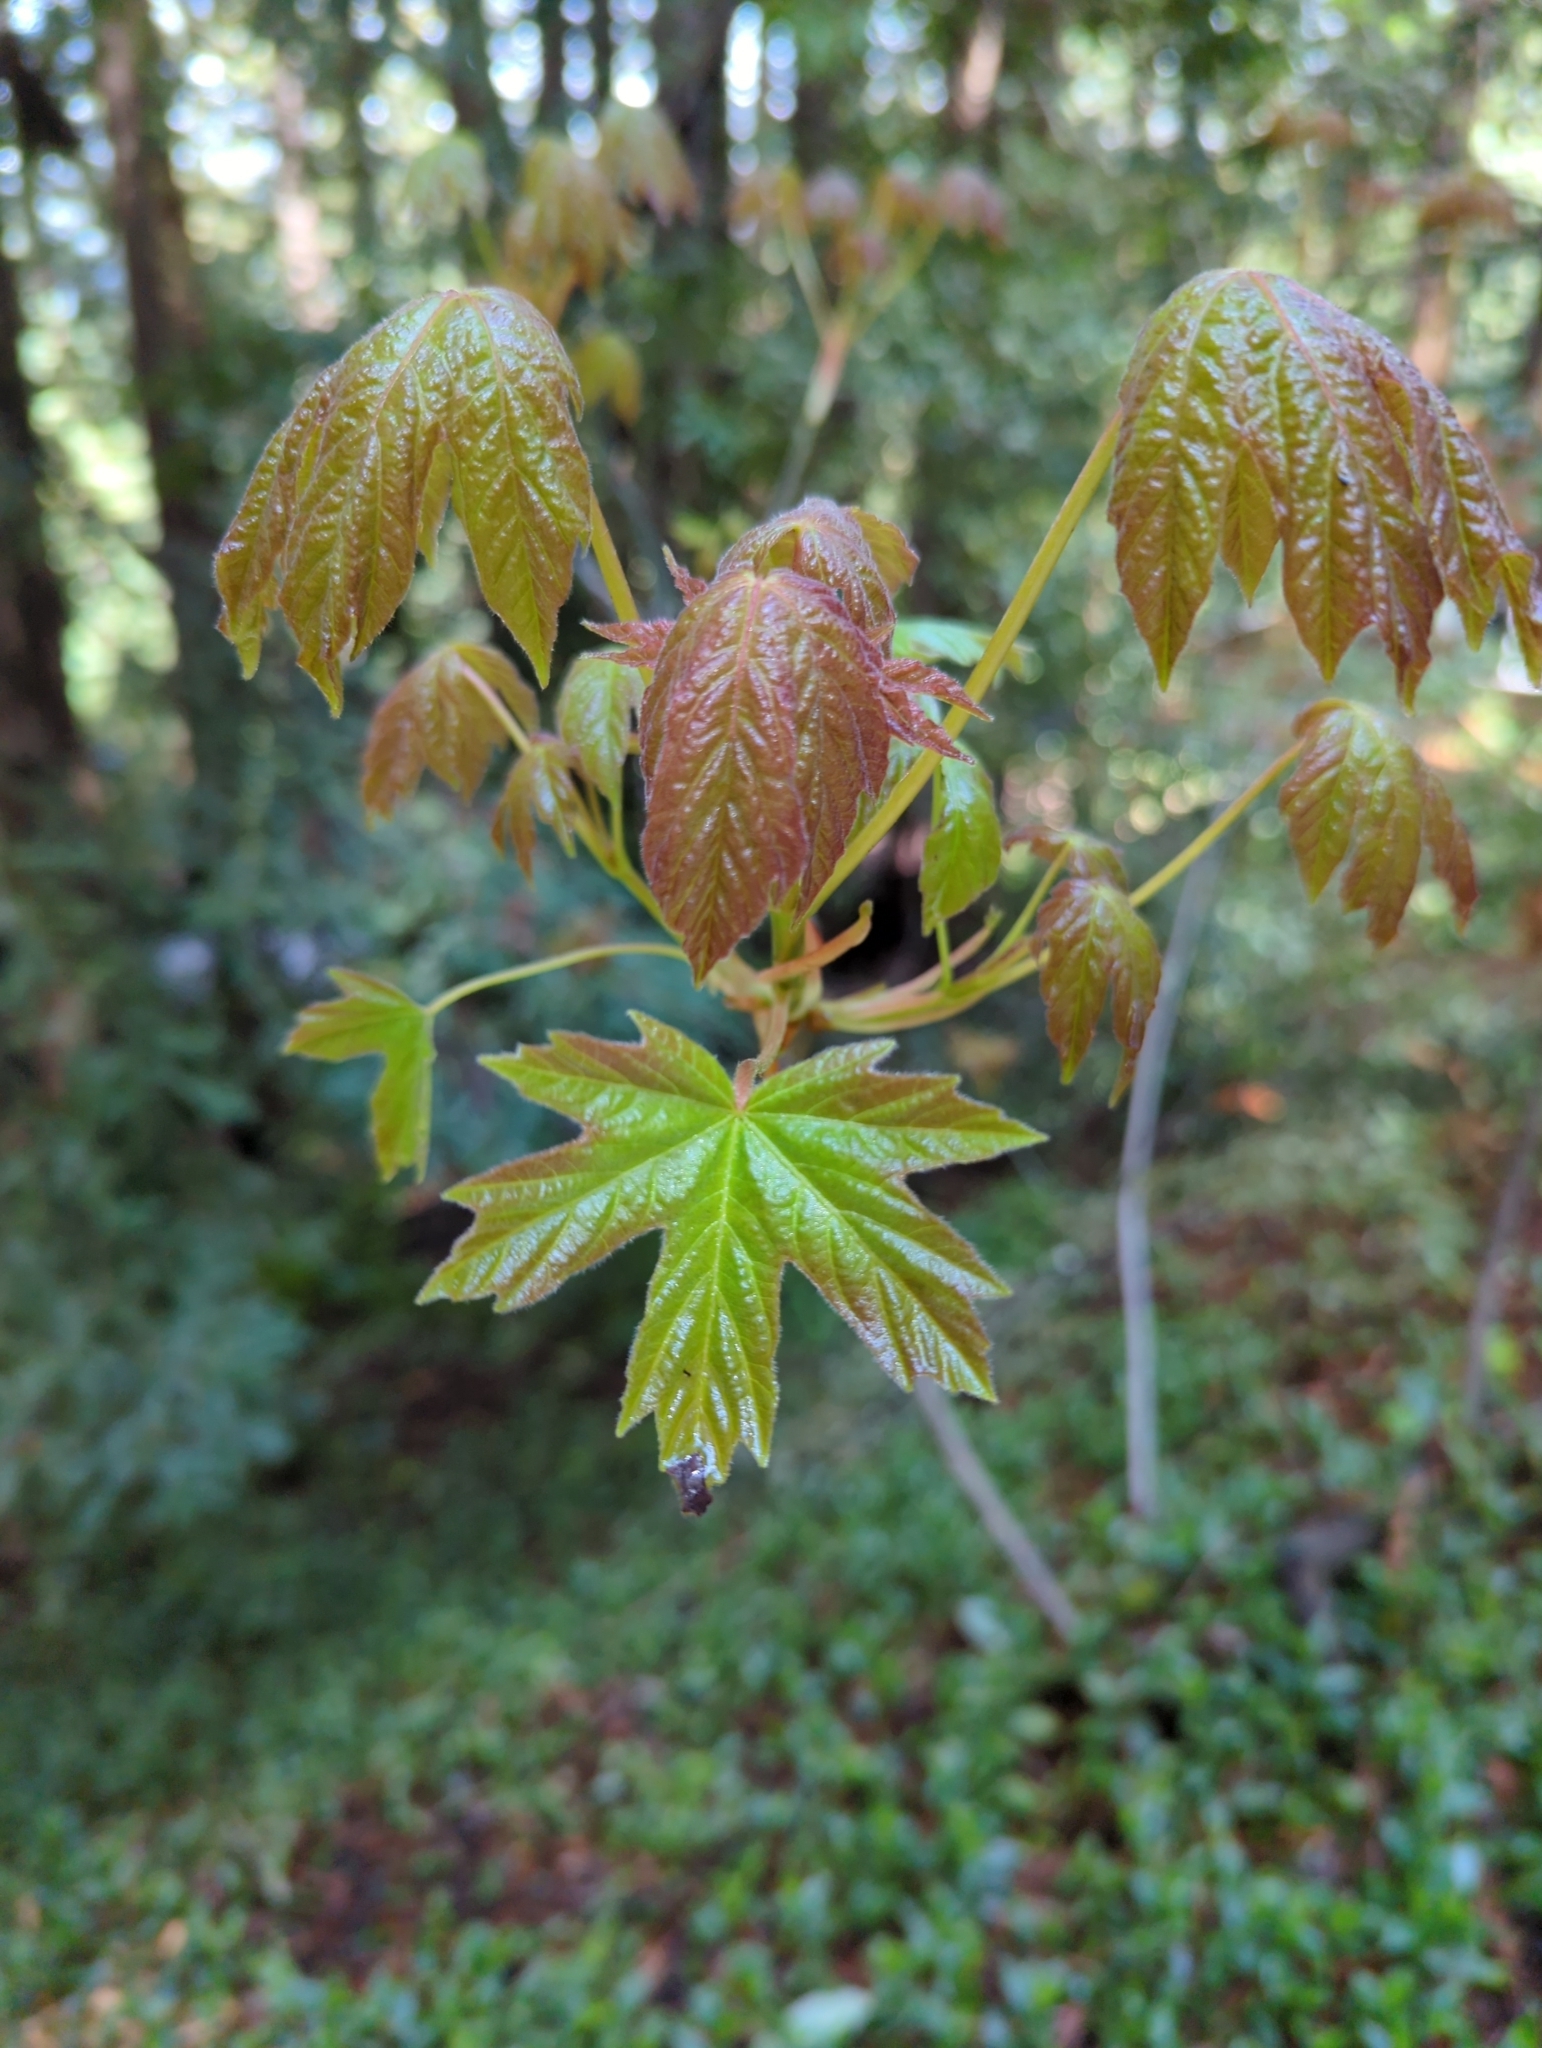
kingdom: Plantae
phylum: Tracheophyta
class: Magnoliopsida
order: Sapindales
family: Sapindaceae
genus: Acer
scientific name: Acer macrophyllum
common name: Oregon maple
